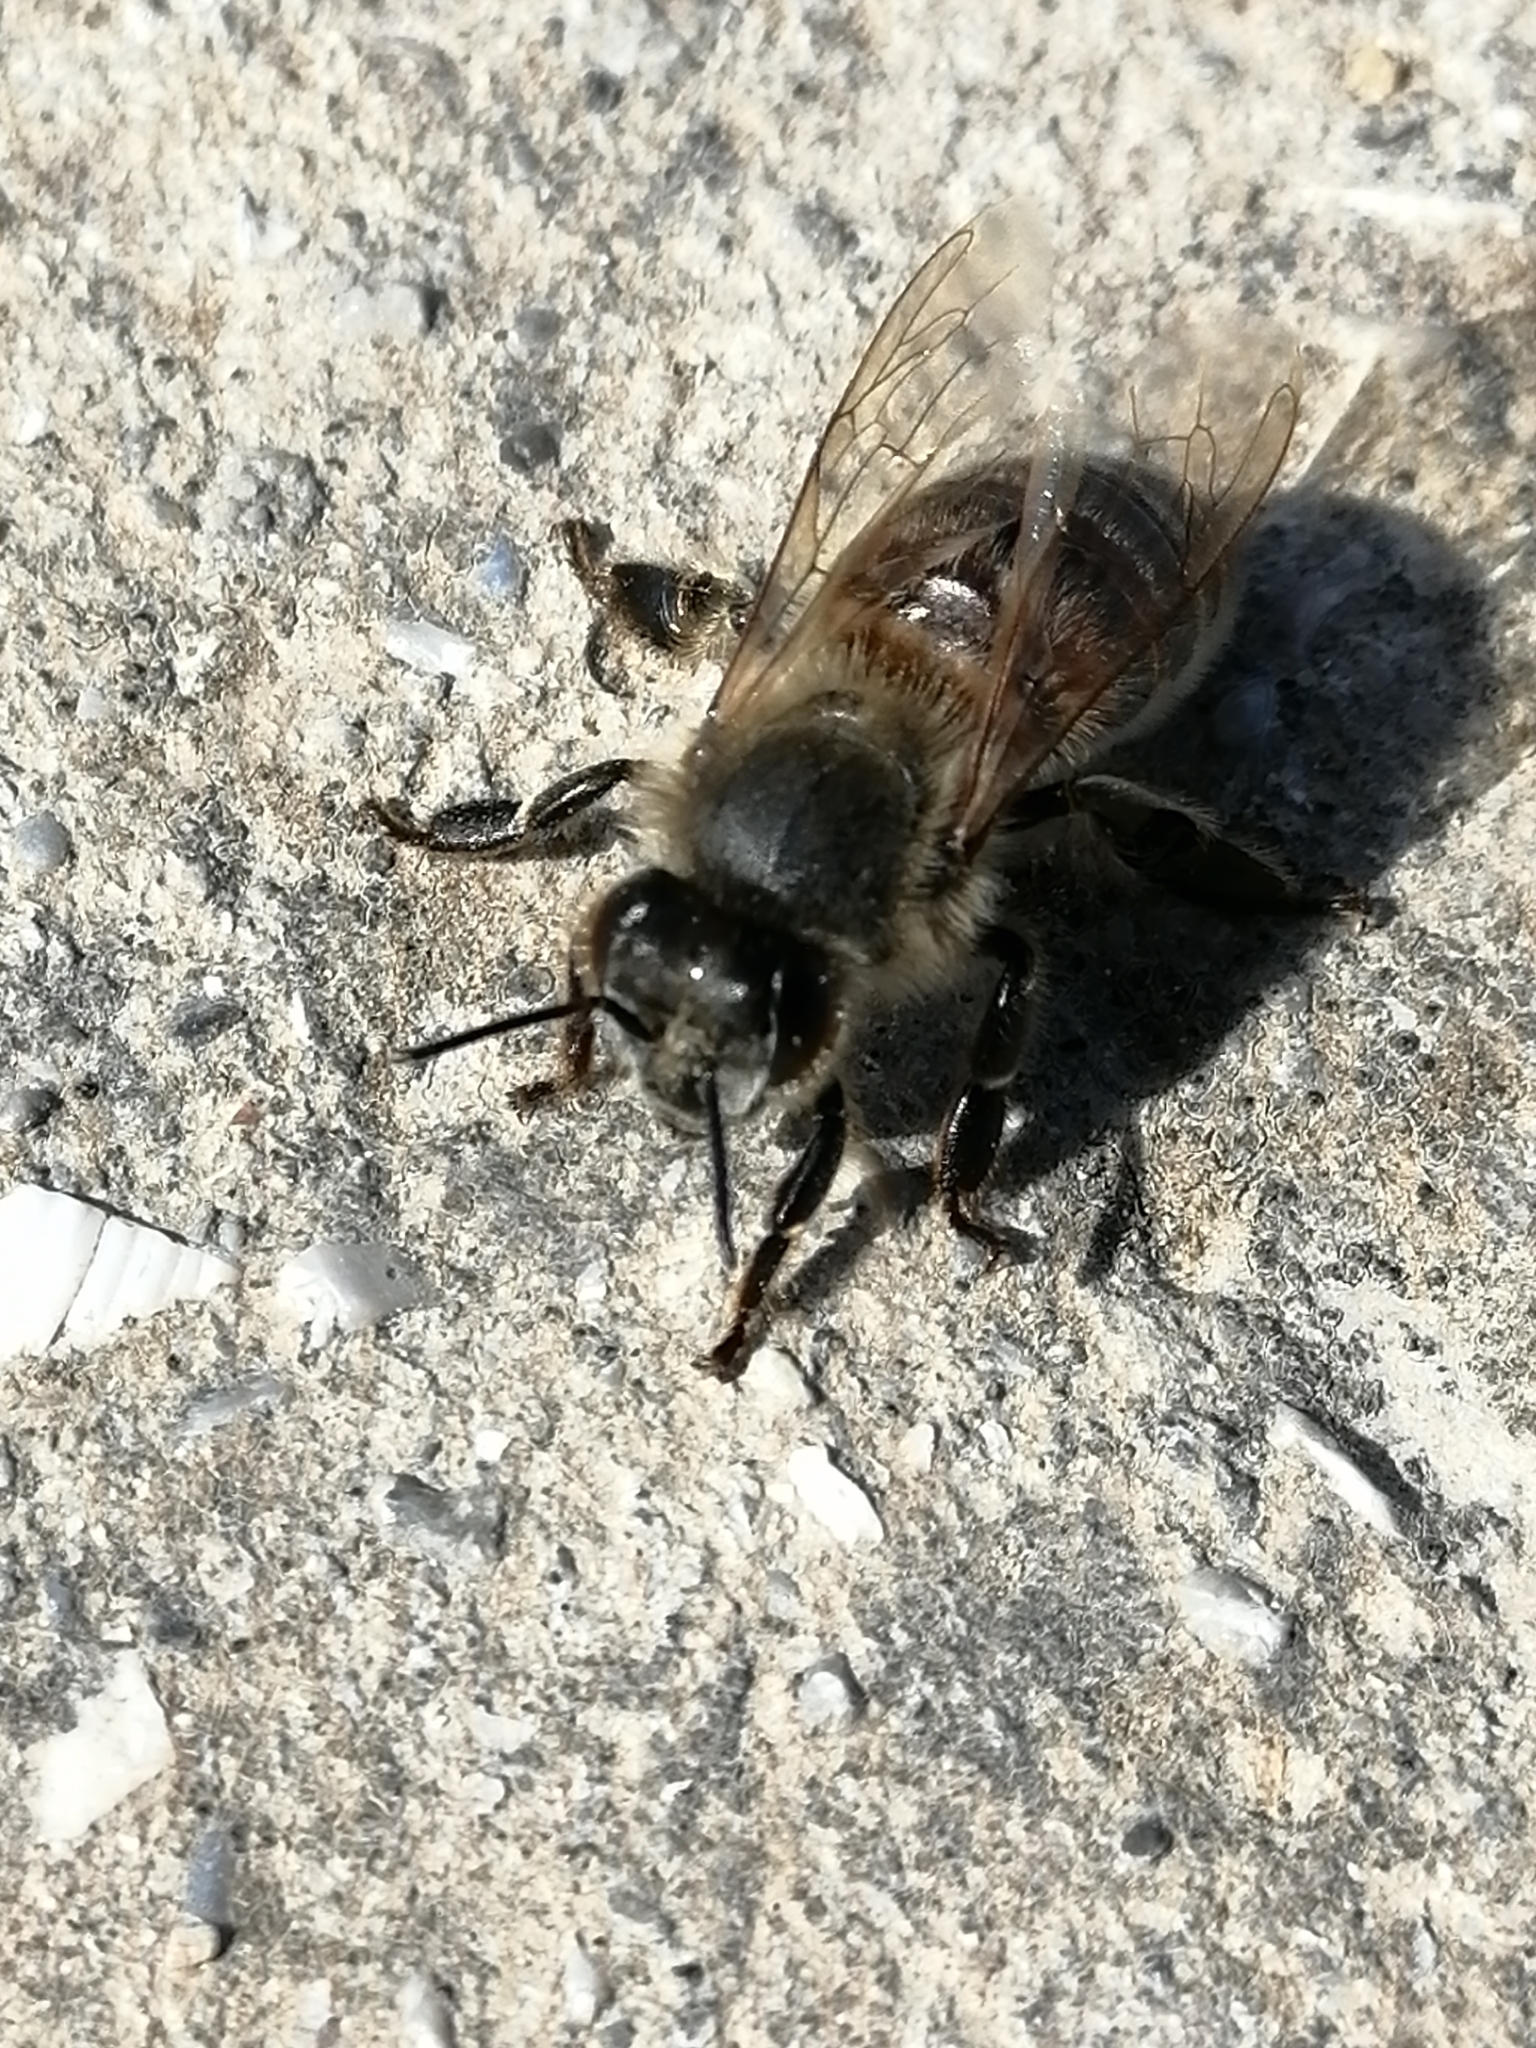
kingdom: Animalia
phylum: Arthropoda
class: Insecta
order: Hymenoptera
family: Apidae
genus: Apis
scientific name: Apis mellifera
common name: Honey bee
